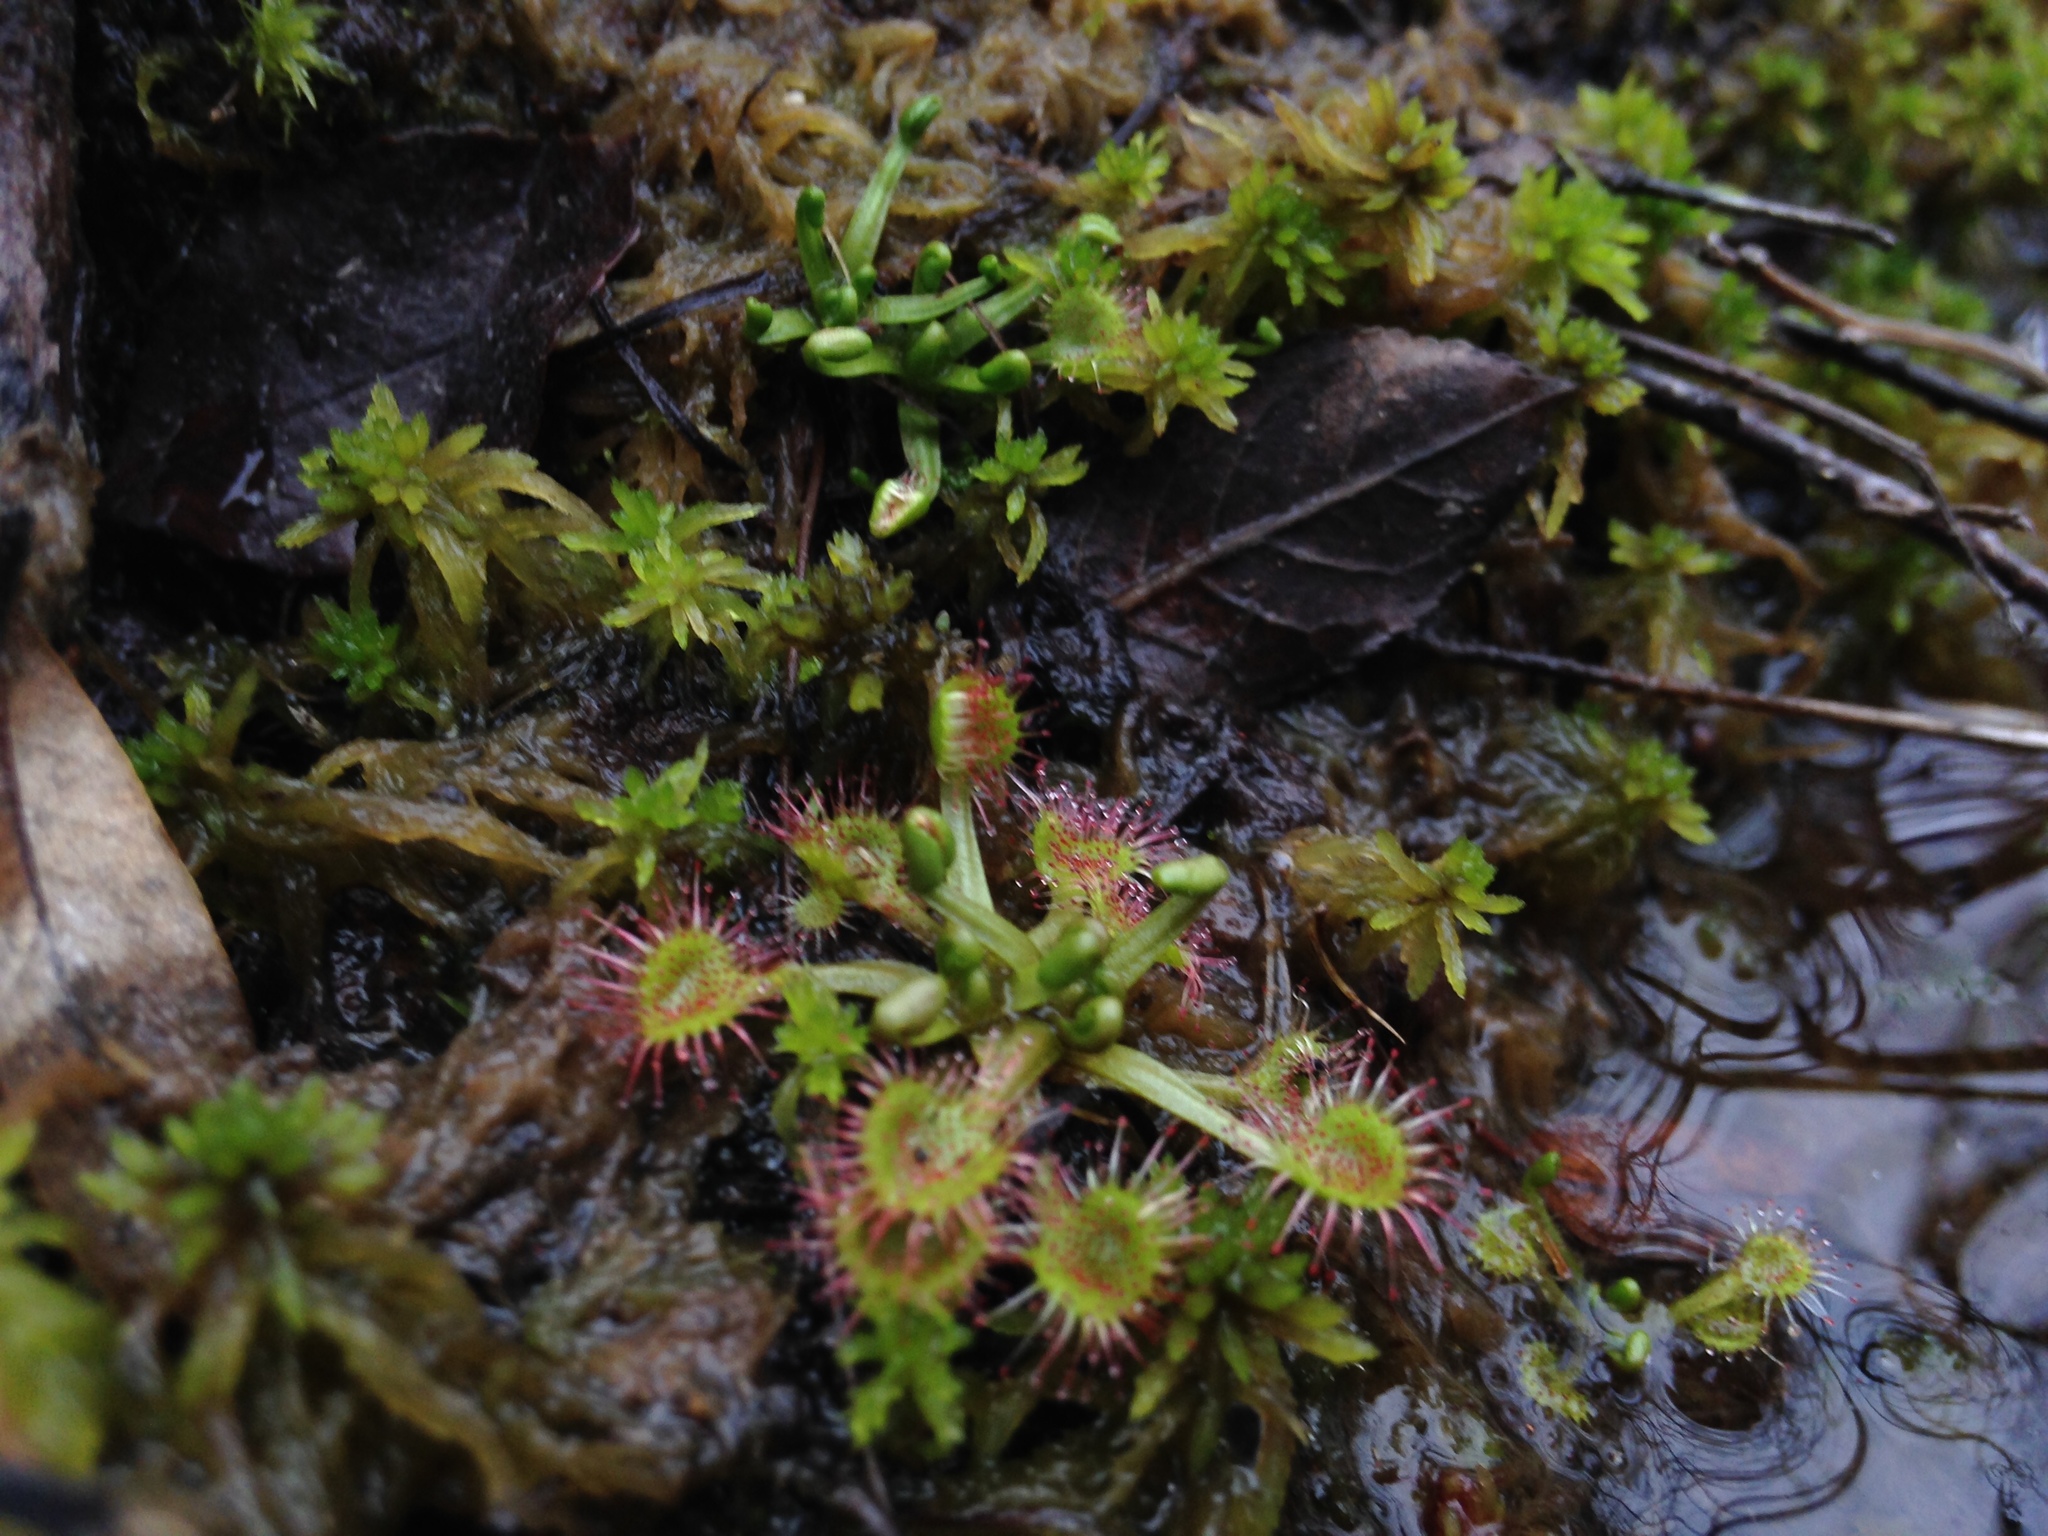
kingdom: Plantae
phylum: Tracheophyta
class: Magnoliopsida
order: Caryophyllales
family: Droseraceae
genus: Drosera
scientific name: Drosera rotundifolia
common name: Round-leaved sundew
